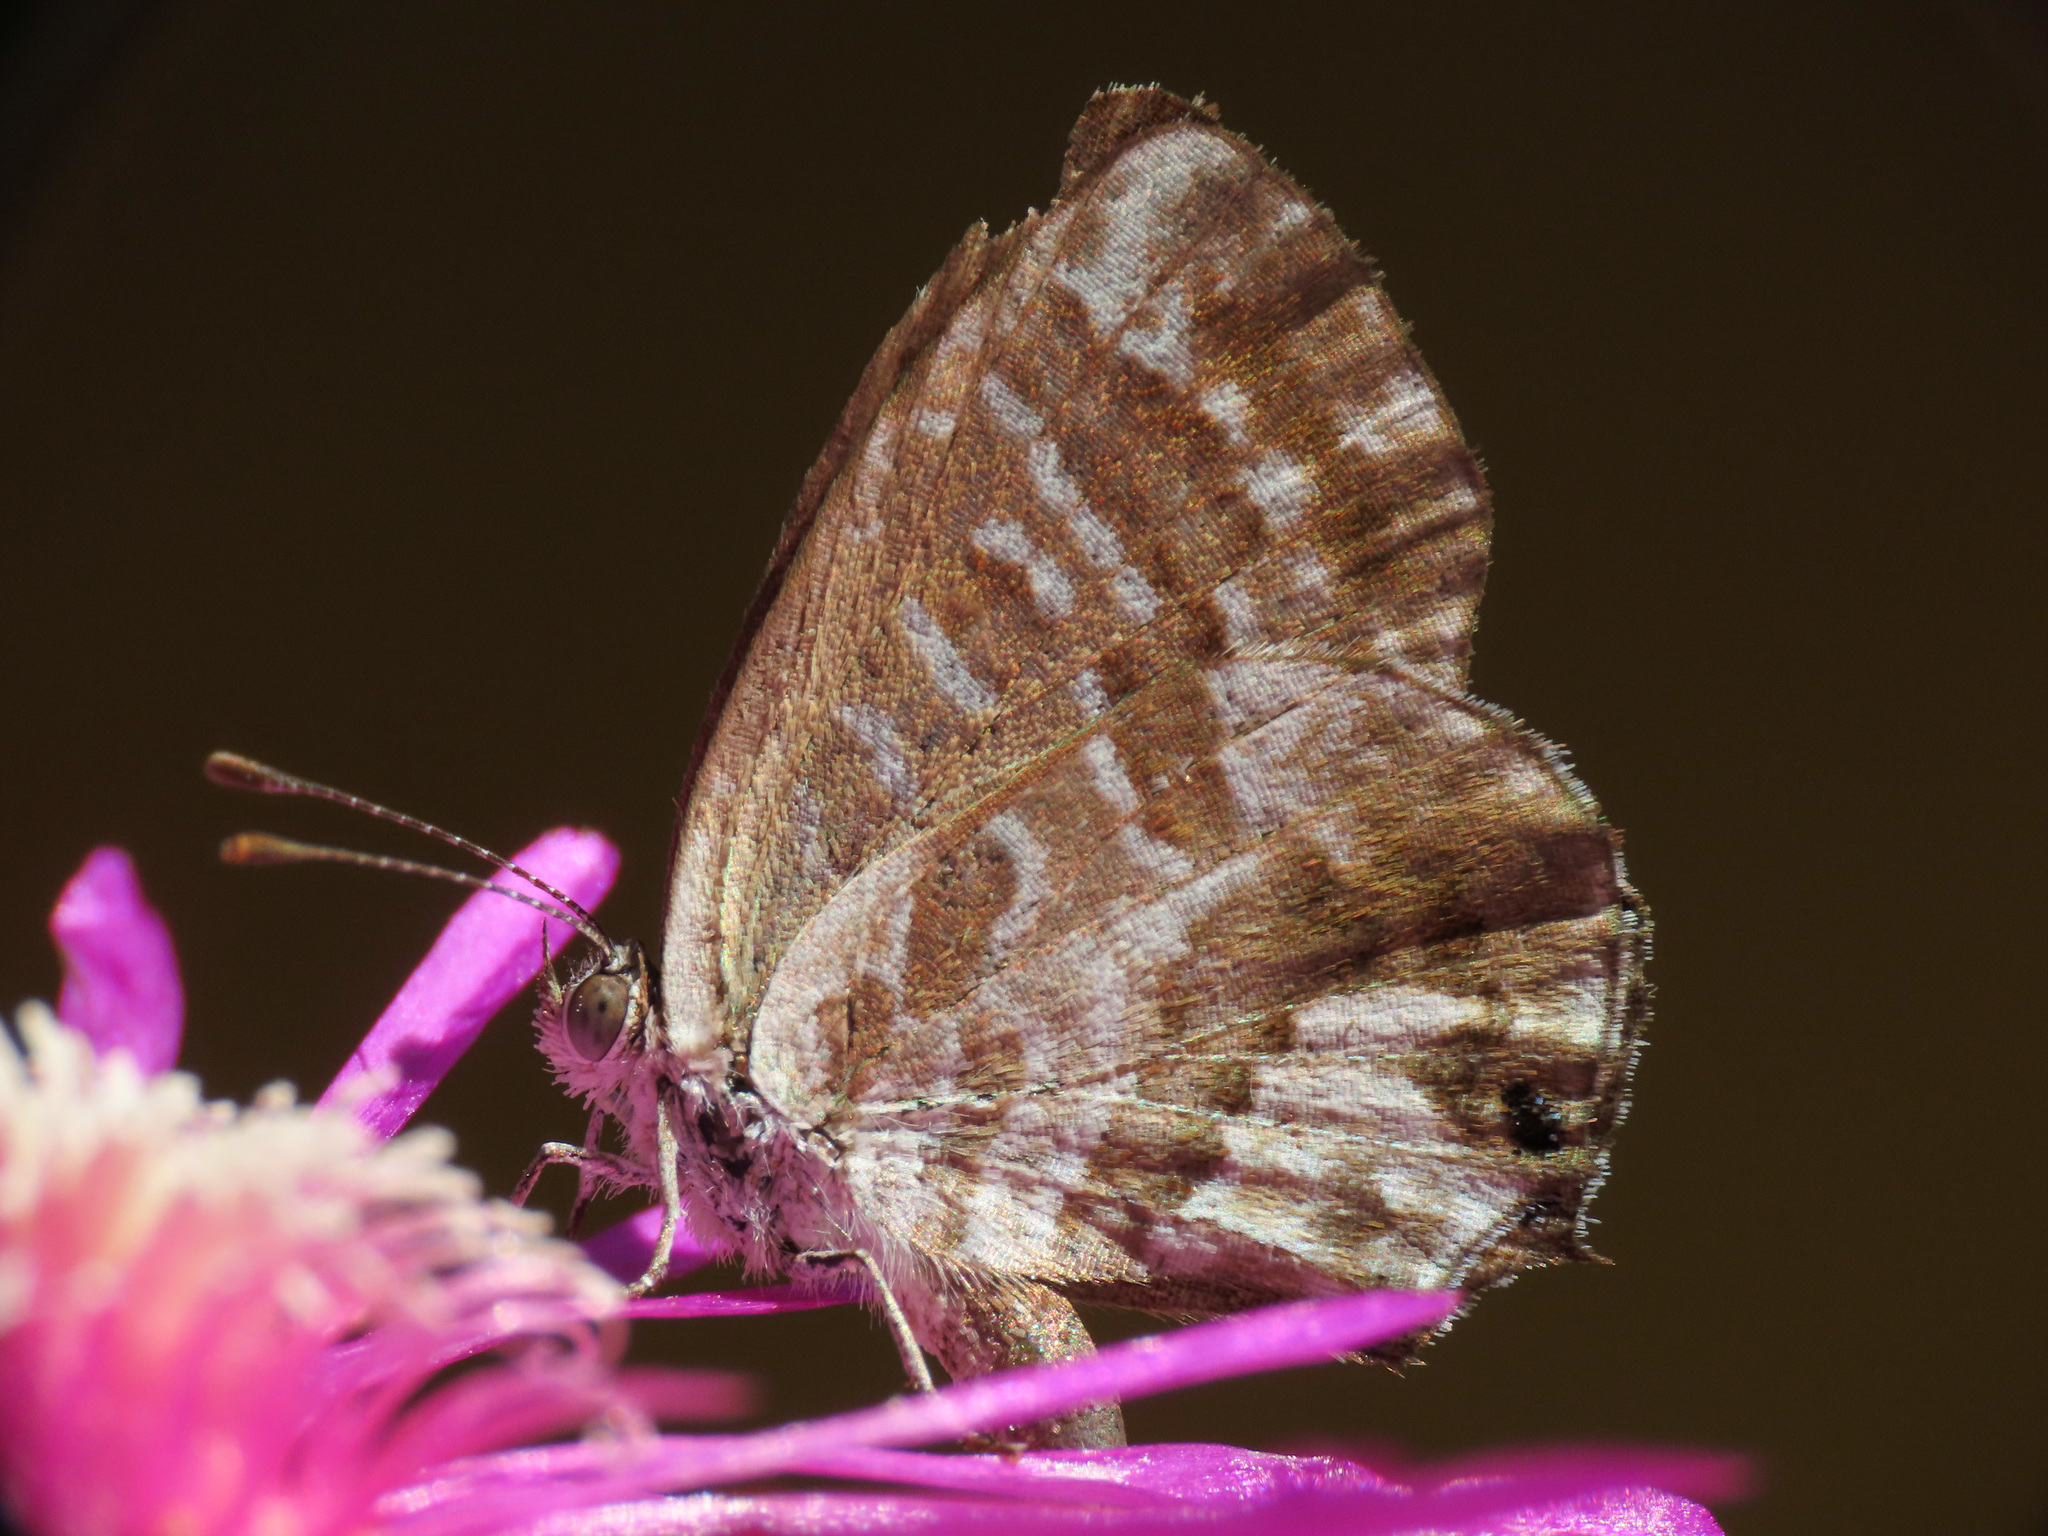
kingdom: Animalia
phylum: Arthropoda
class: Insecta
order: Lepidoptera
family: Lycaenidae
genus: Cacyreus
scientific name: Cacyreus marshalli
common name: Geranium bronze
